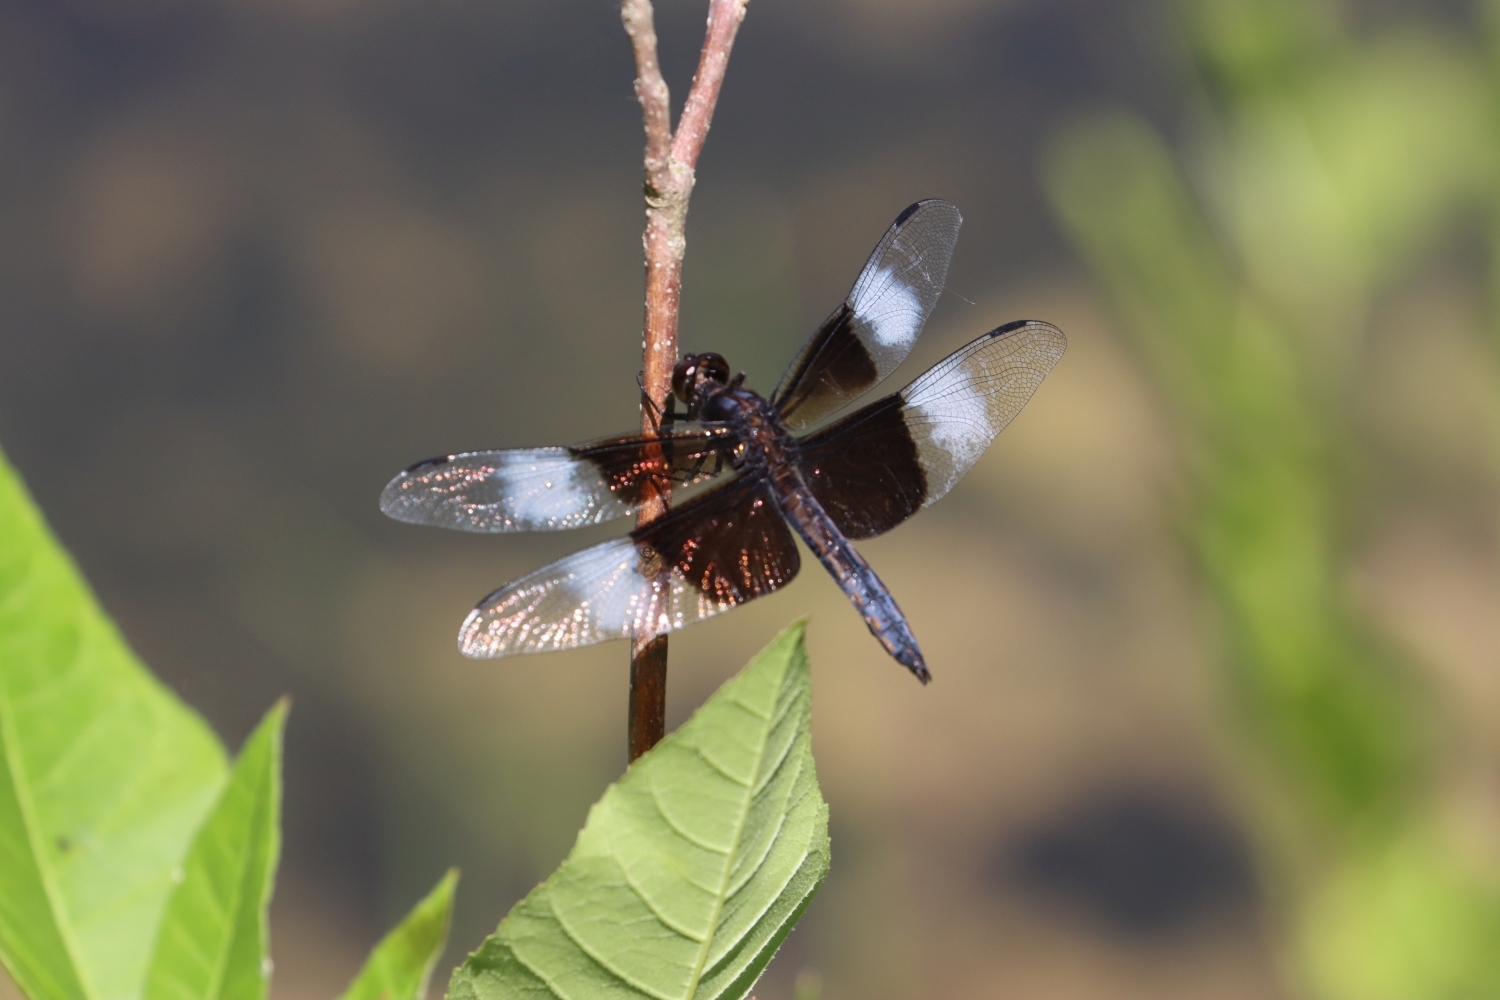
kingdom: Animalia
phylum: Arthropoda
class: Insecta
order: Odonata
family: Libellulidae
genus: Libellula
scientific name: Libellula luctuosa
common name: Widow skimmer
